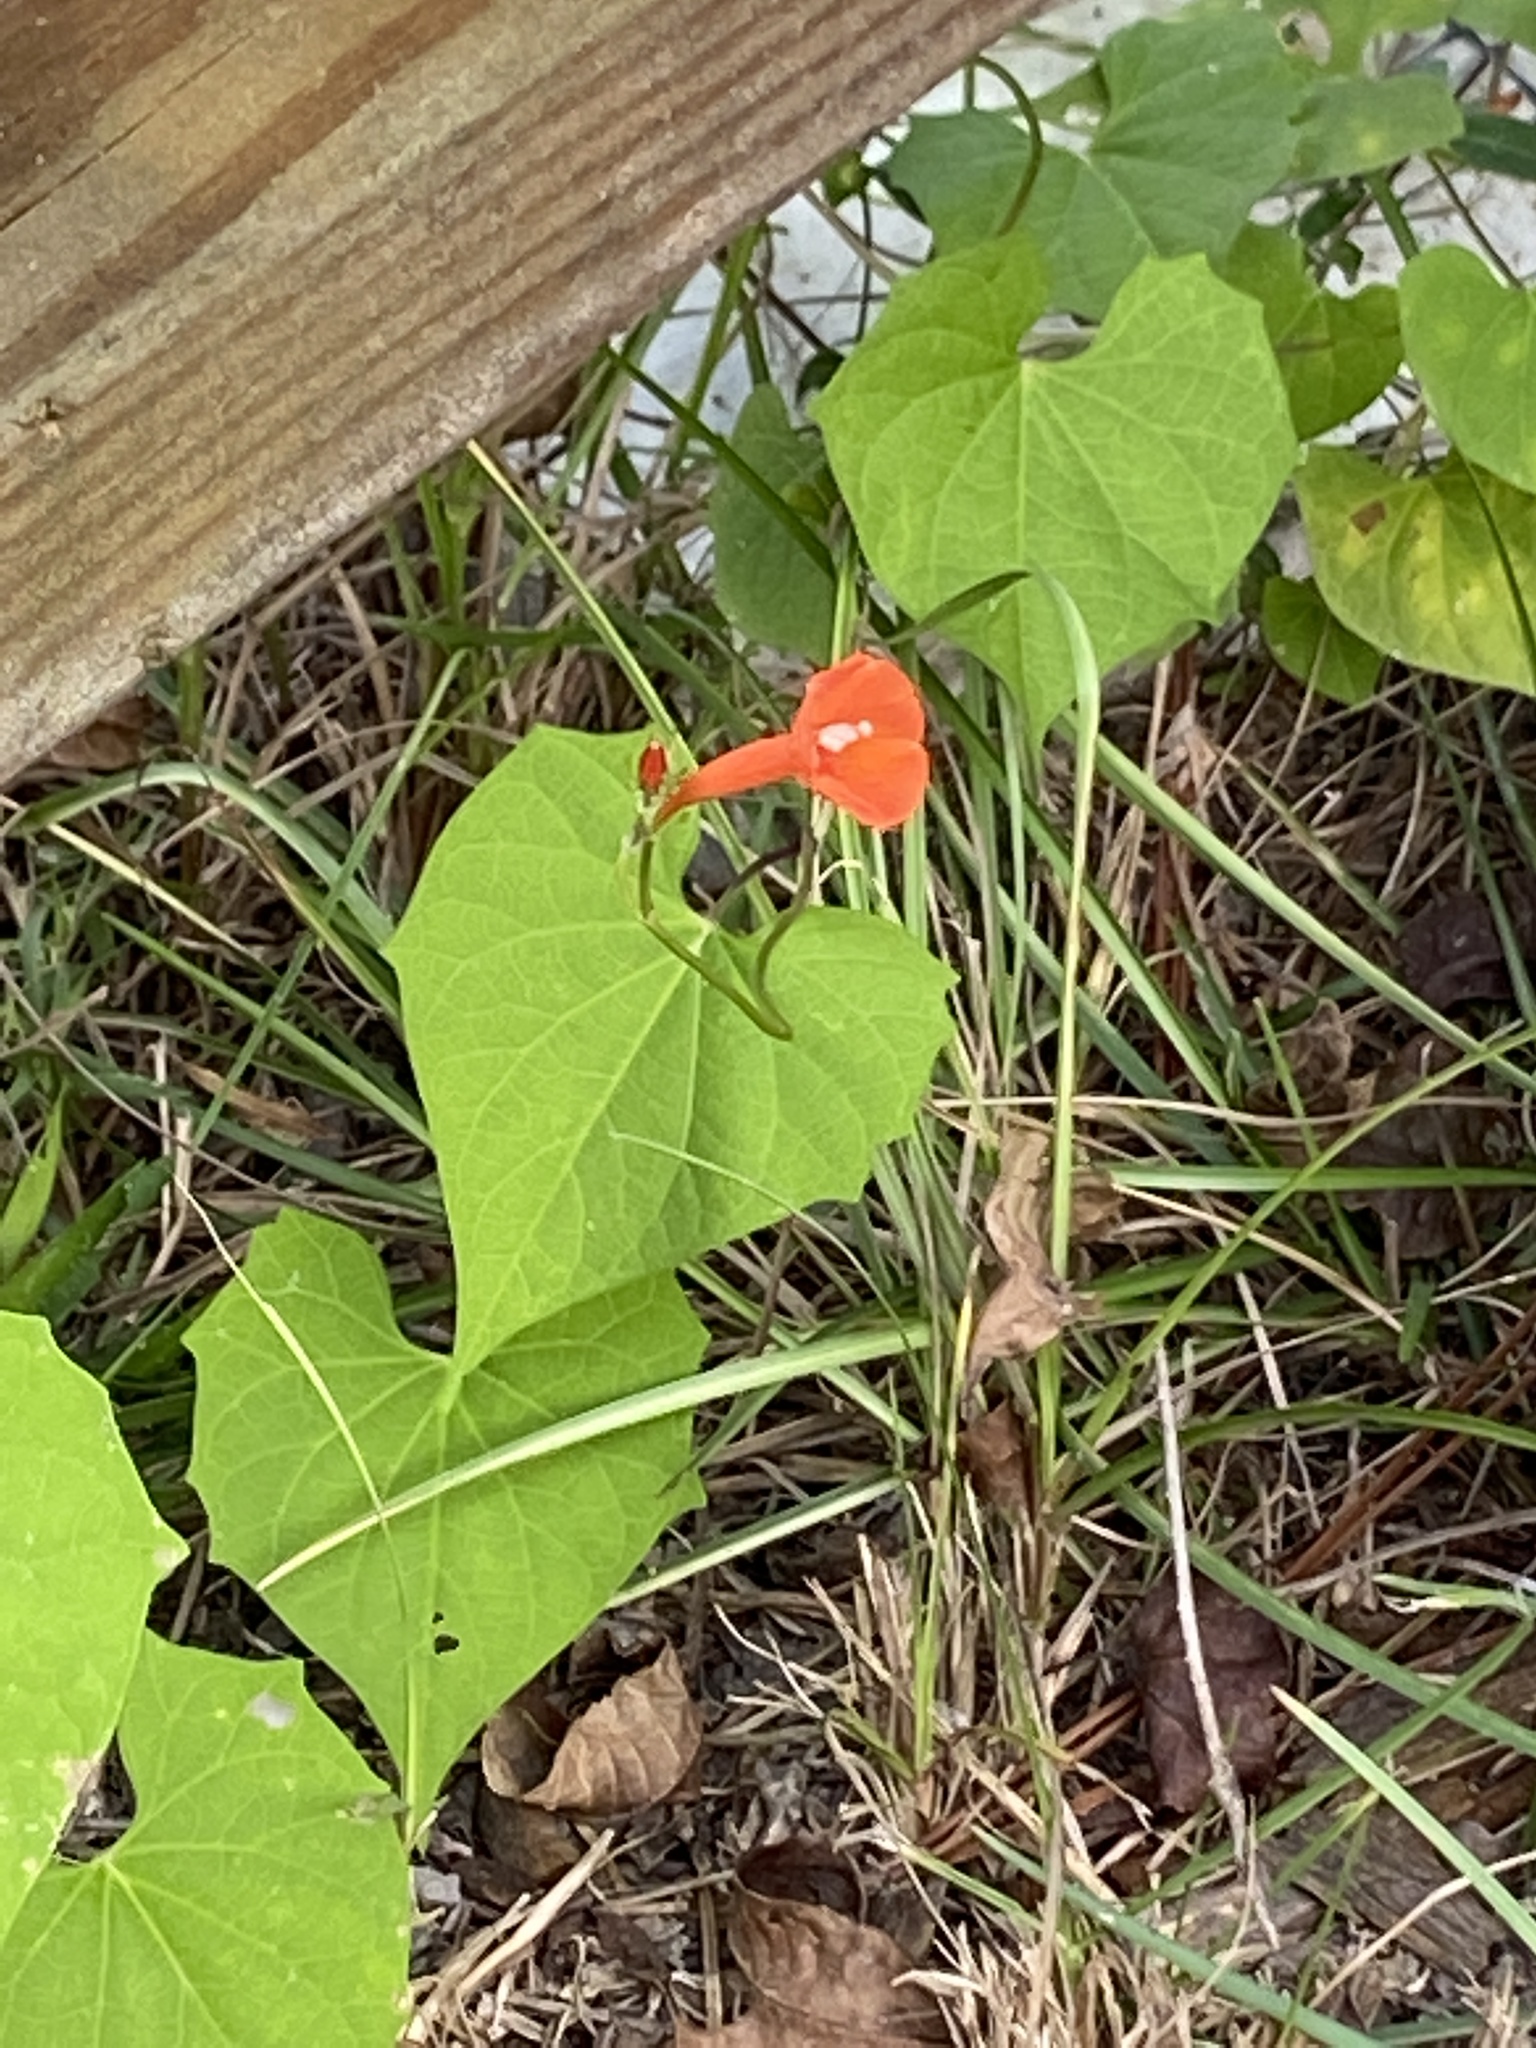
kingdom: Plantae
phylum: Tracheophyta
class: Magnoliopsida
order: Solanales
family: Convolvulaceae
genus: Ipomoea
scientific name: Ipomoea hederifolia
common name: Ivy-leaf morning-glory
